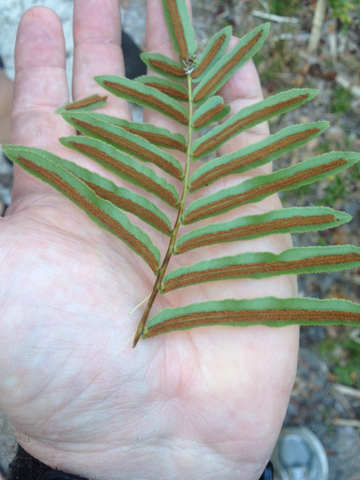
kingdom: Plantae
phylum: Tracheophyta
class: Polypodiopsida
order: Polypodiales
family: Blechnaceae
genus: Telmatoblechnum
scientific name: Telmatoblechnum serrulatum
